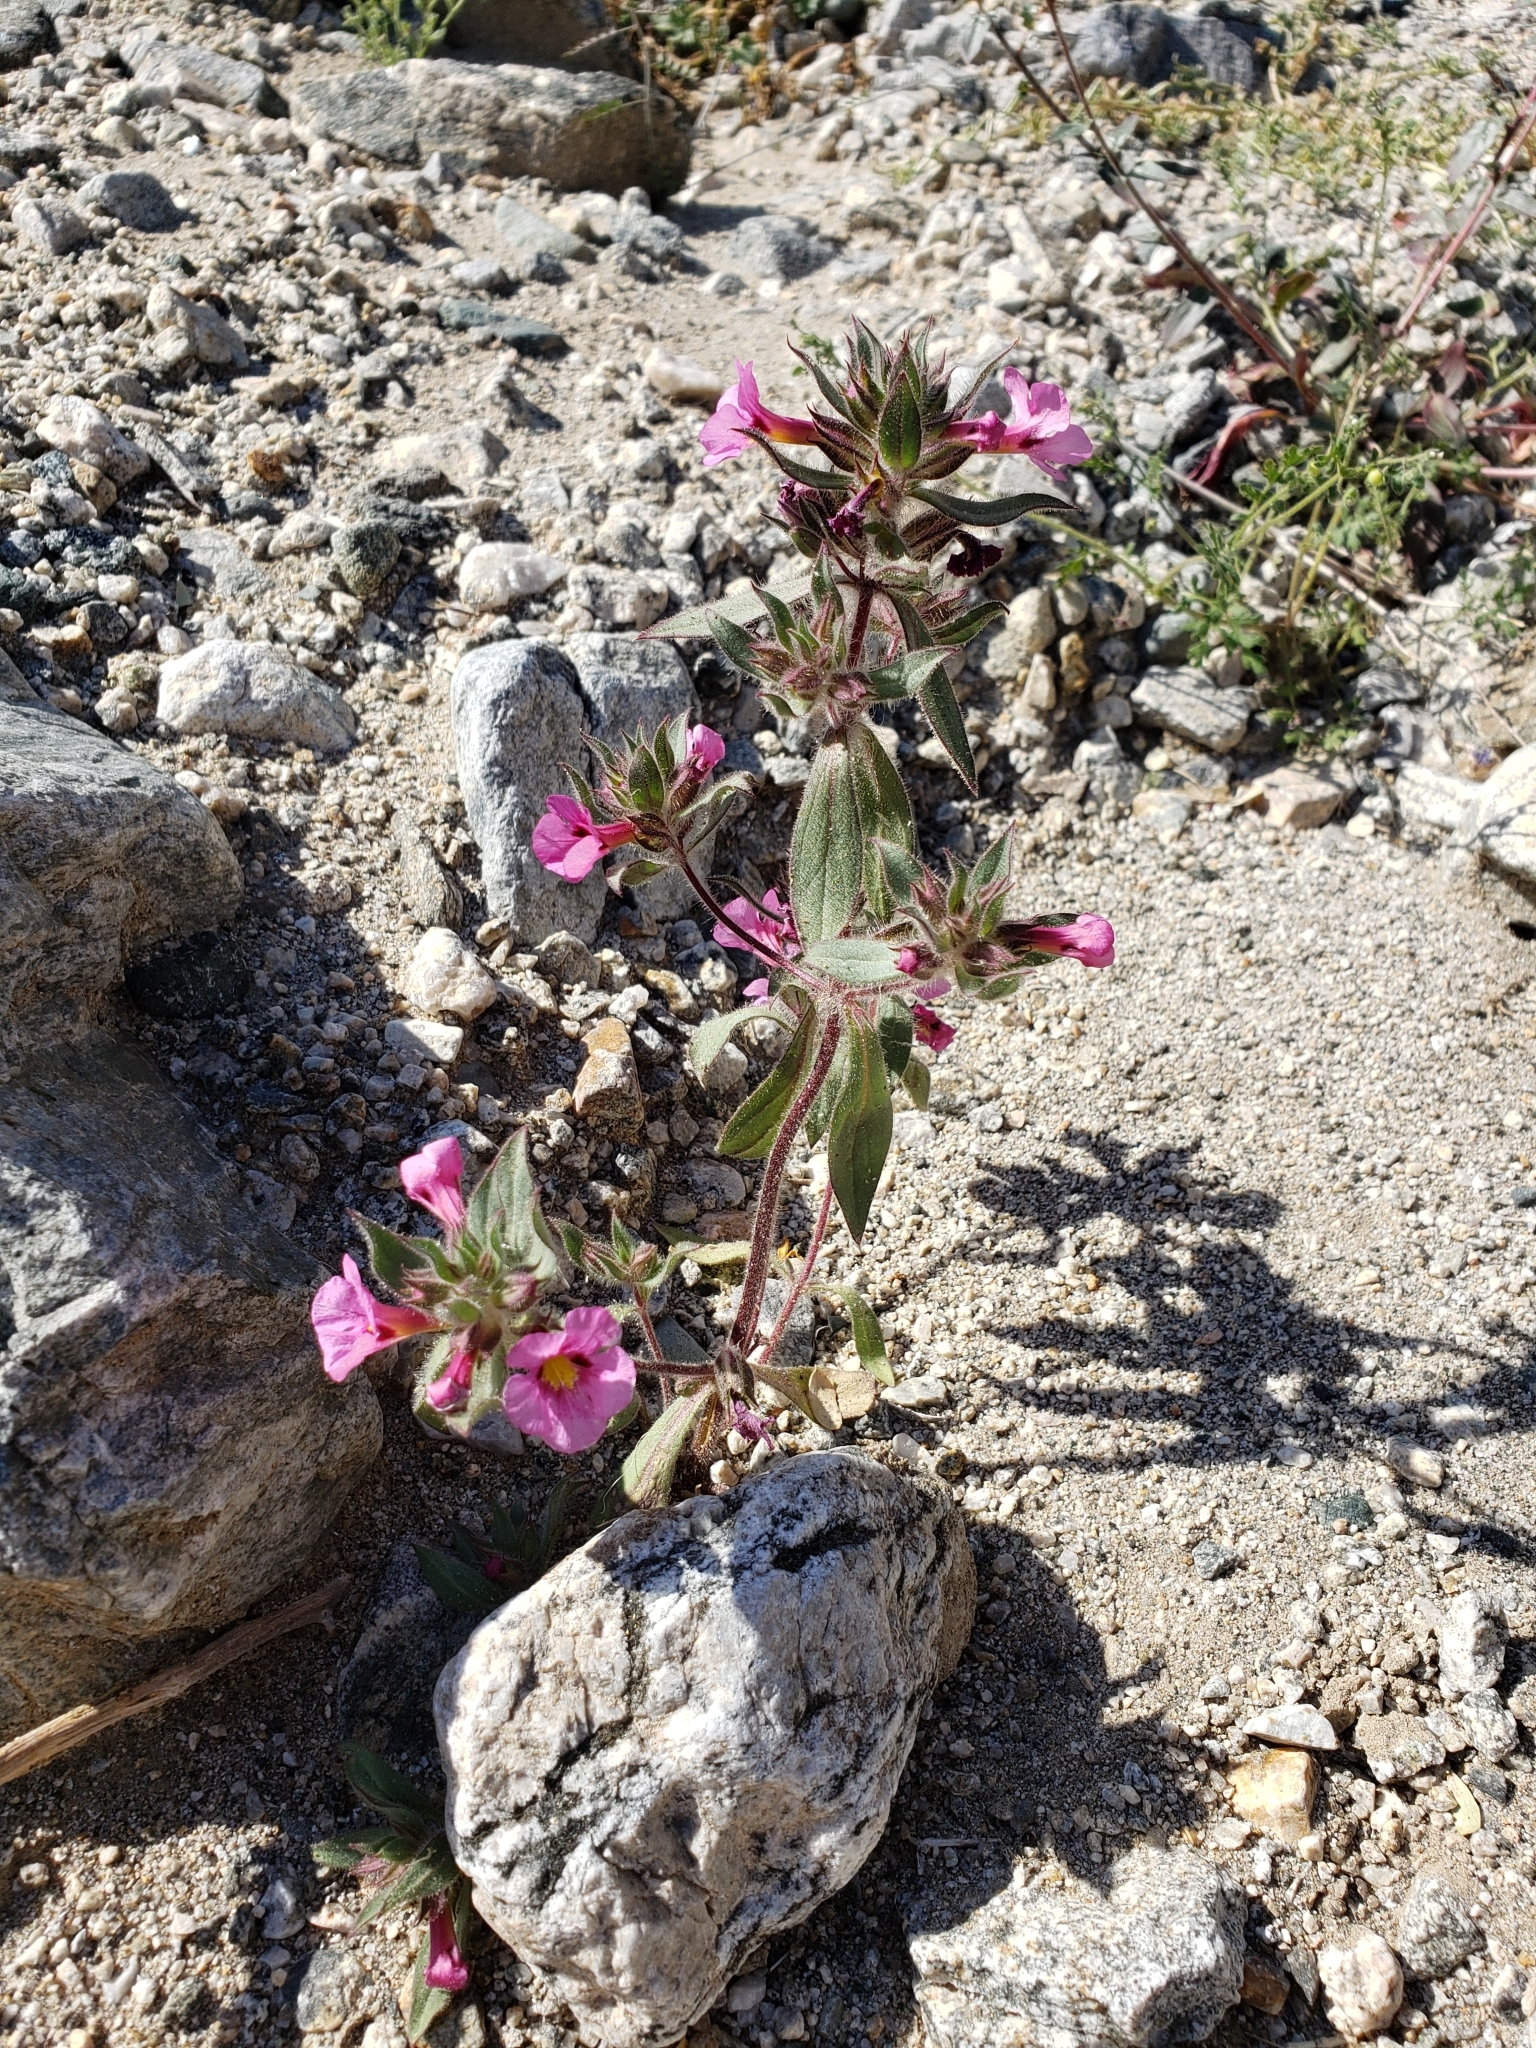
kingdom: Plantae
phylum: Tracheophyta
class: Magnoliopsida
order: Lamiales
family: Phrymaceae
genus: Diplacus
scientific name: Diplacus bigelovii
